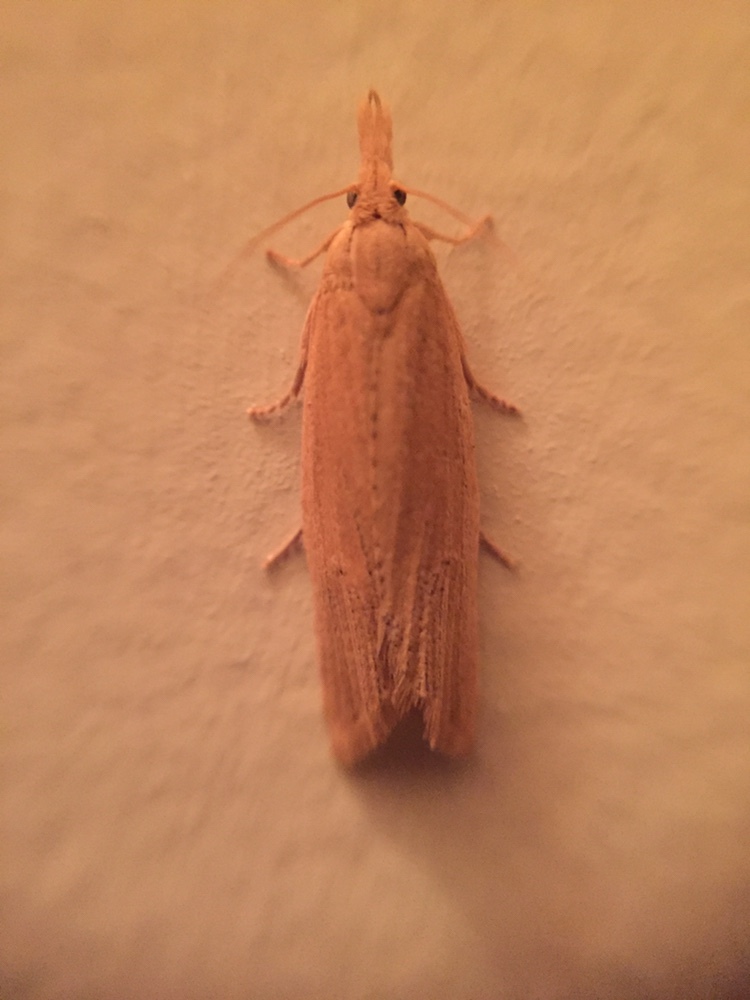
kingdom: Animalia
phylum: Arthropoda
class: Insecta
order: Lepidoptera
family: Tortricidae
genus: Bactra
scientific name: Bactra noteraula
